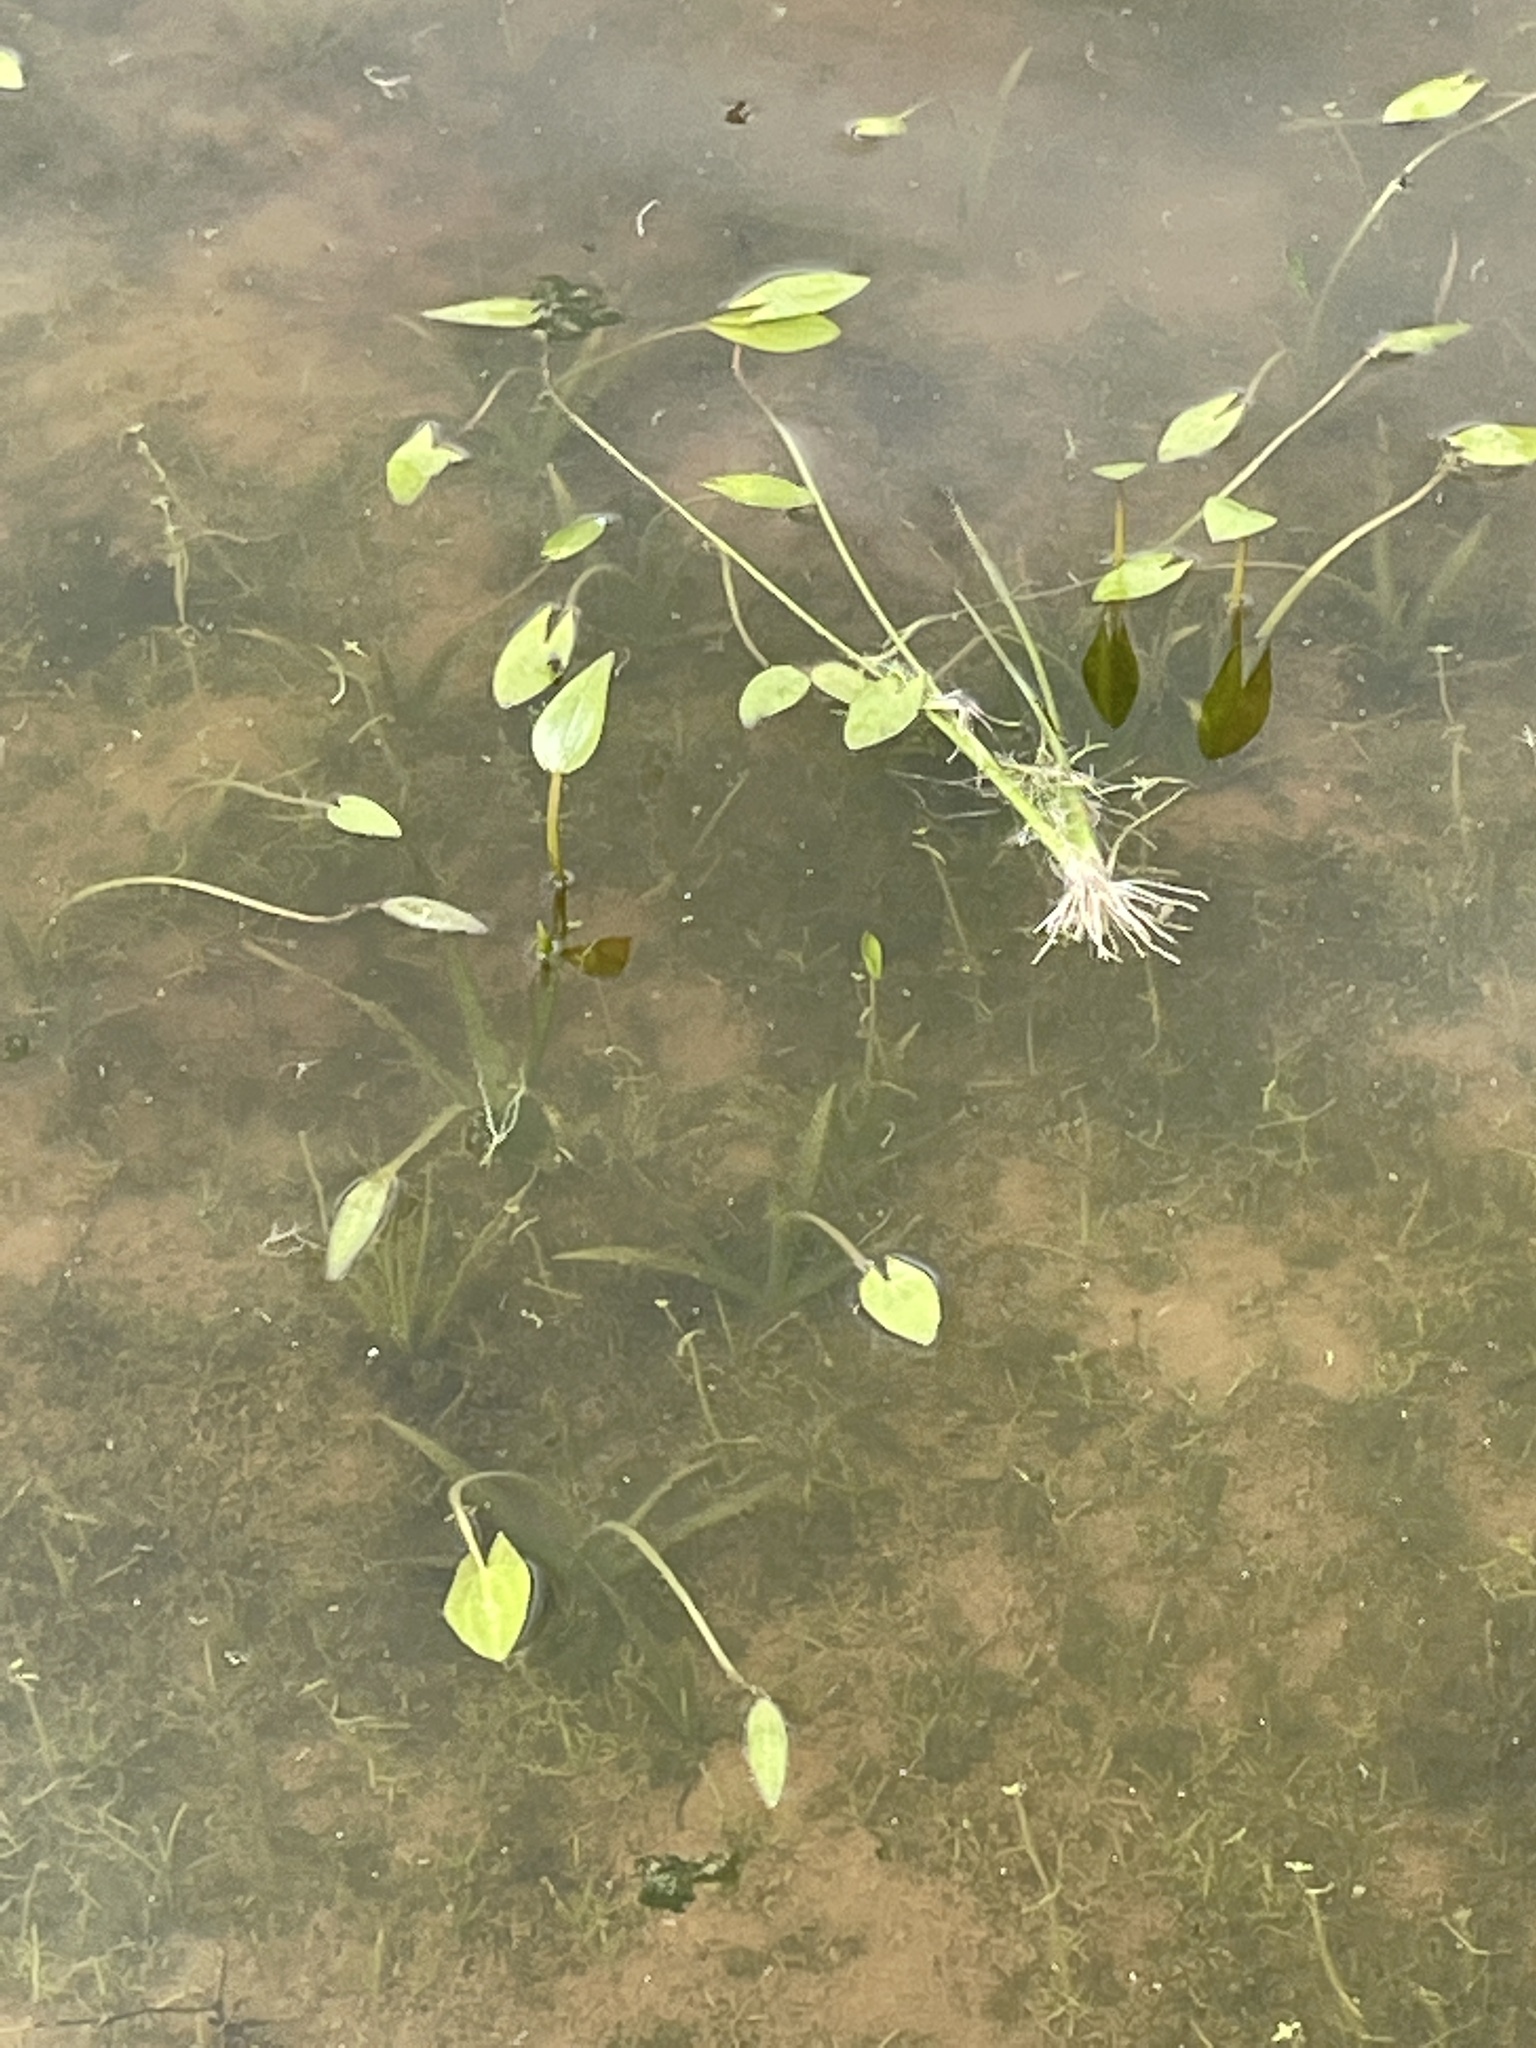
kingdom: Plantae
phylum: Tracheophyta
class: Liliopsida
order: Alismatales
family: Alismataceae
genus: Sagittaria
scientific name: Sagittaria cuneata
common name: Northern arrowhead
